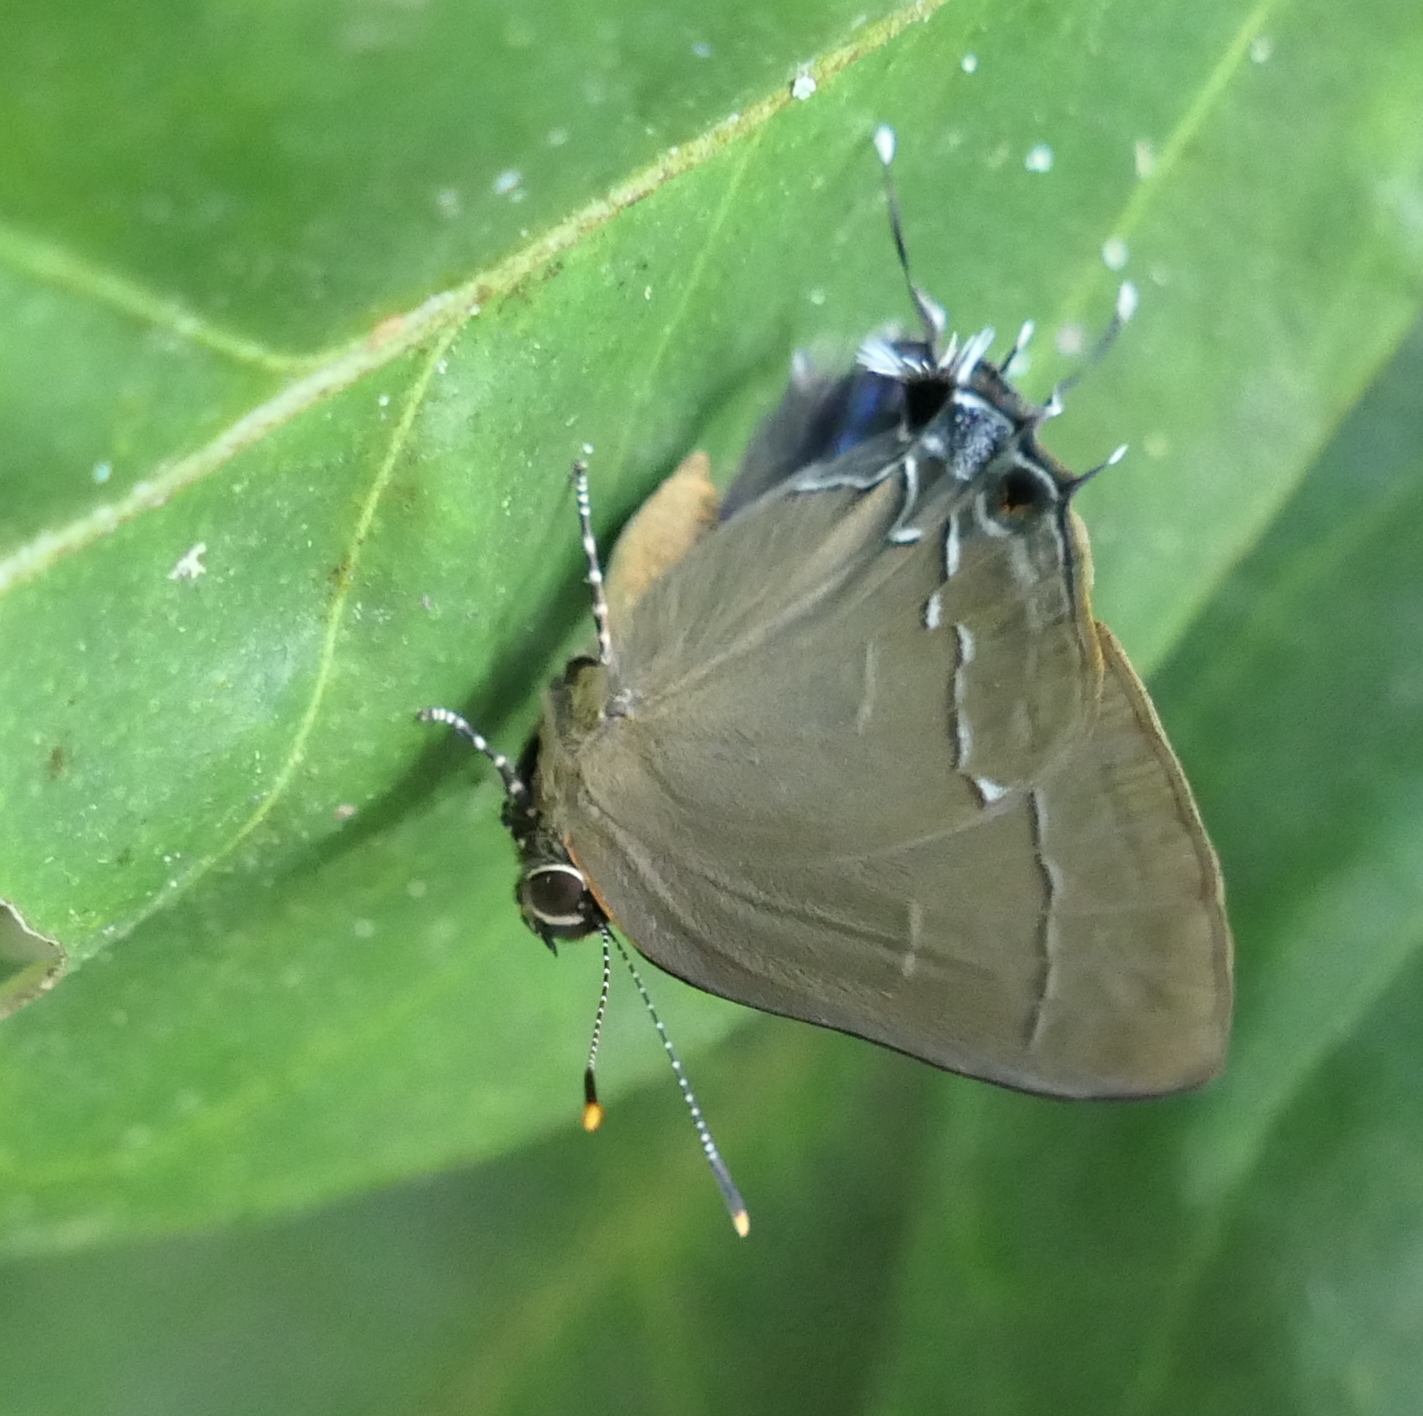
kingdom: Animalia
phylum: Arthropoda
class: Insecta
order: Lepidoptera
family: Lycaenidae
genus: Ziegleria
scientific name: Ziegleria hesperitis
